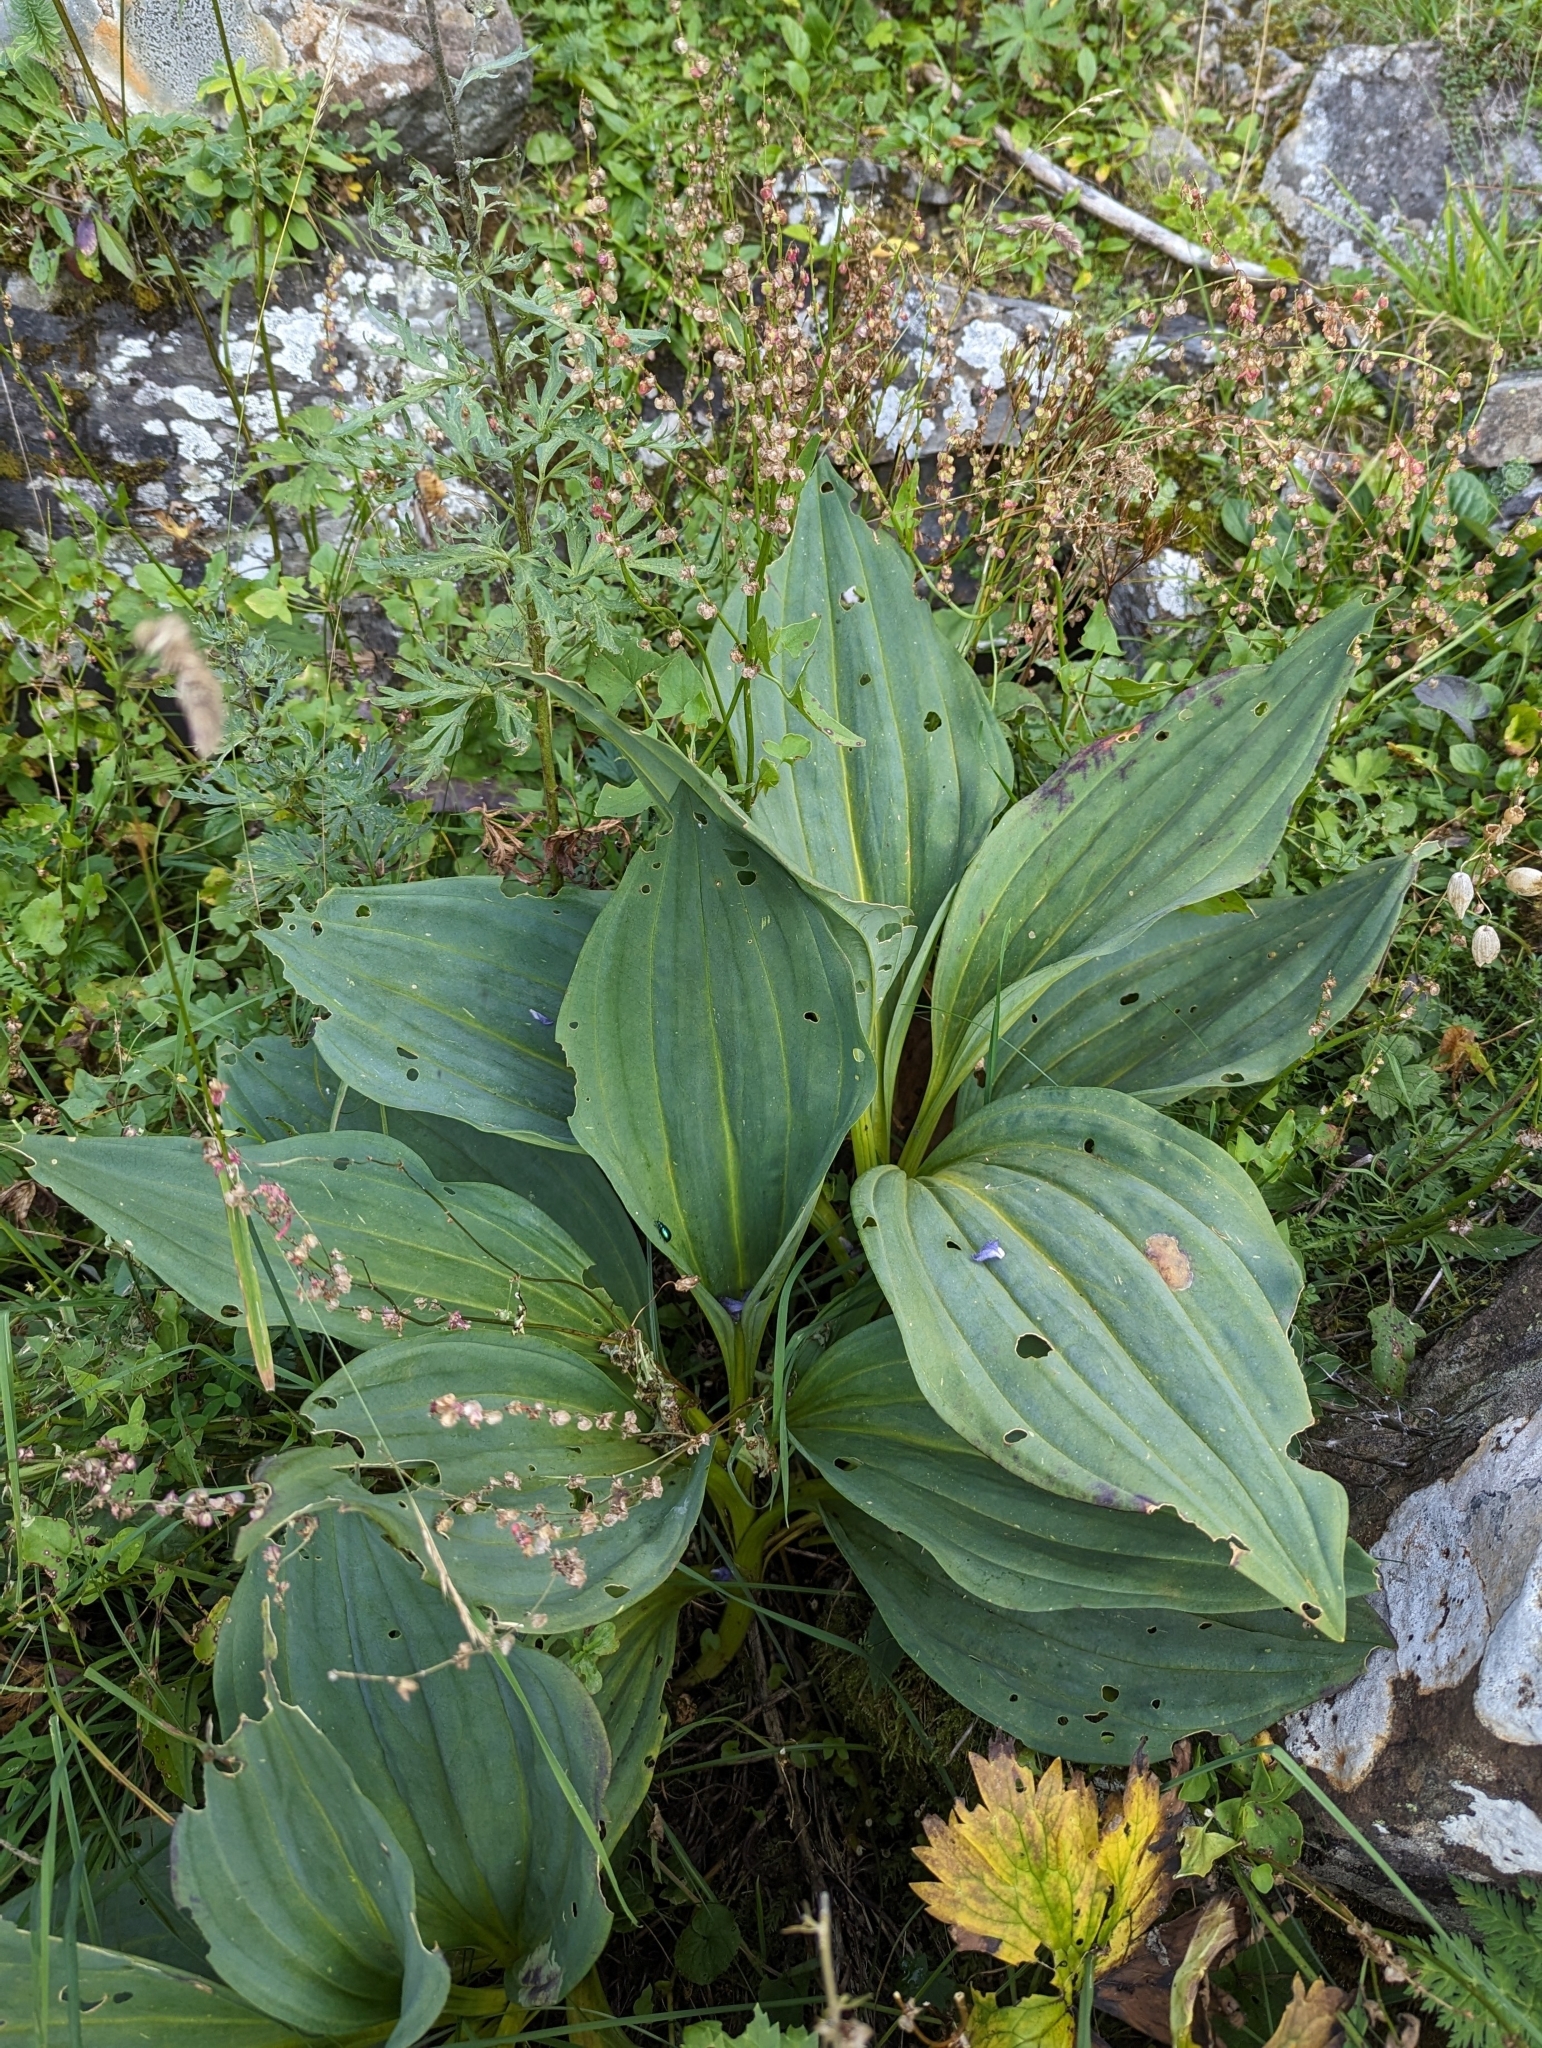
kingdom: Plantae
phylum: Tracheophyta
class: Magnoliopsida
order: Gentianales
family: Gentianaceae
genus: Gentiana
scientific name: Gentiana lutea
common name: Great yellow gentian
